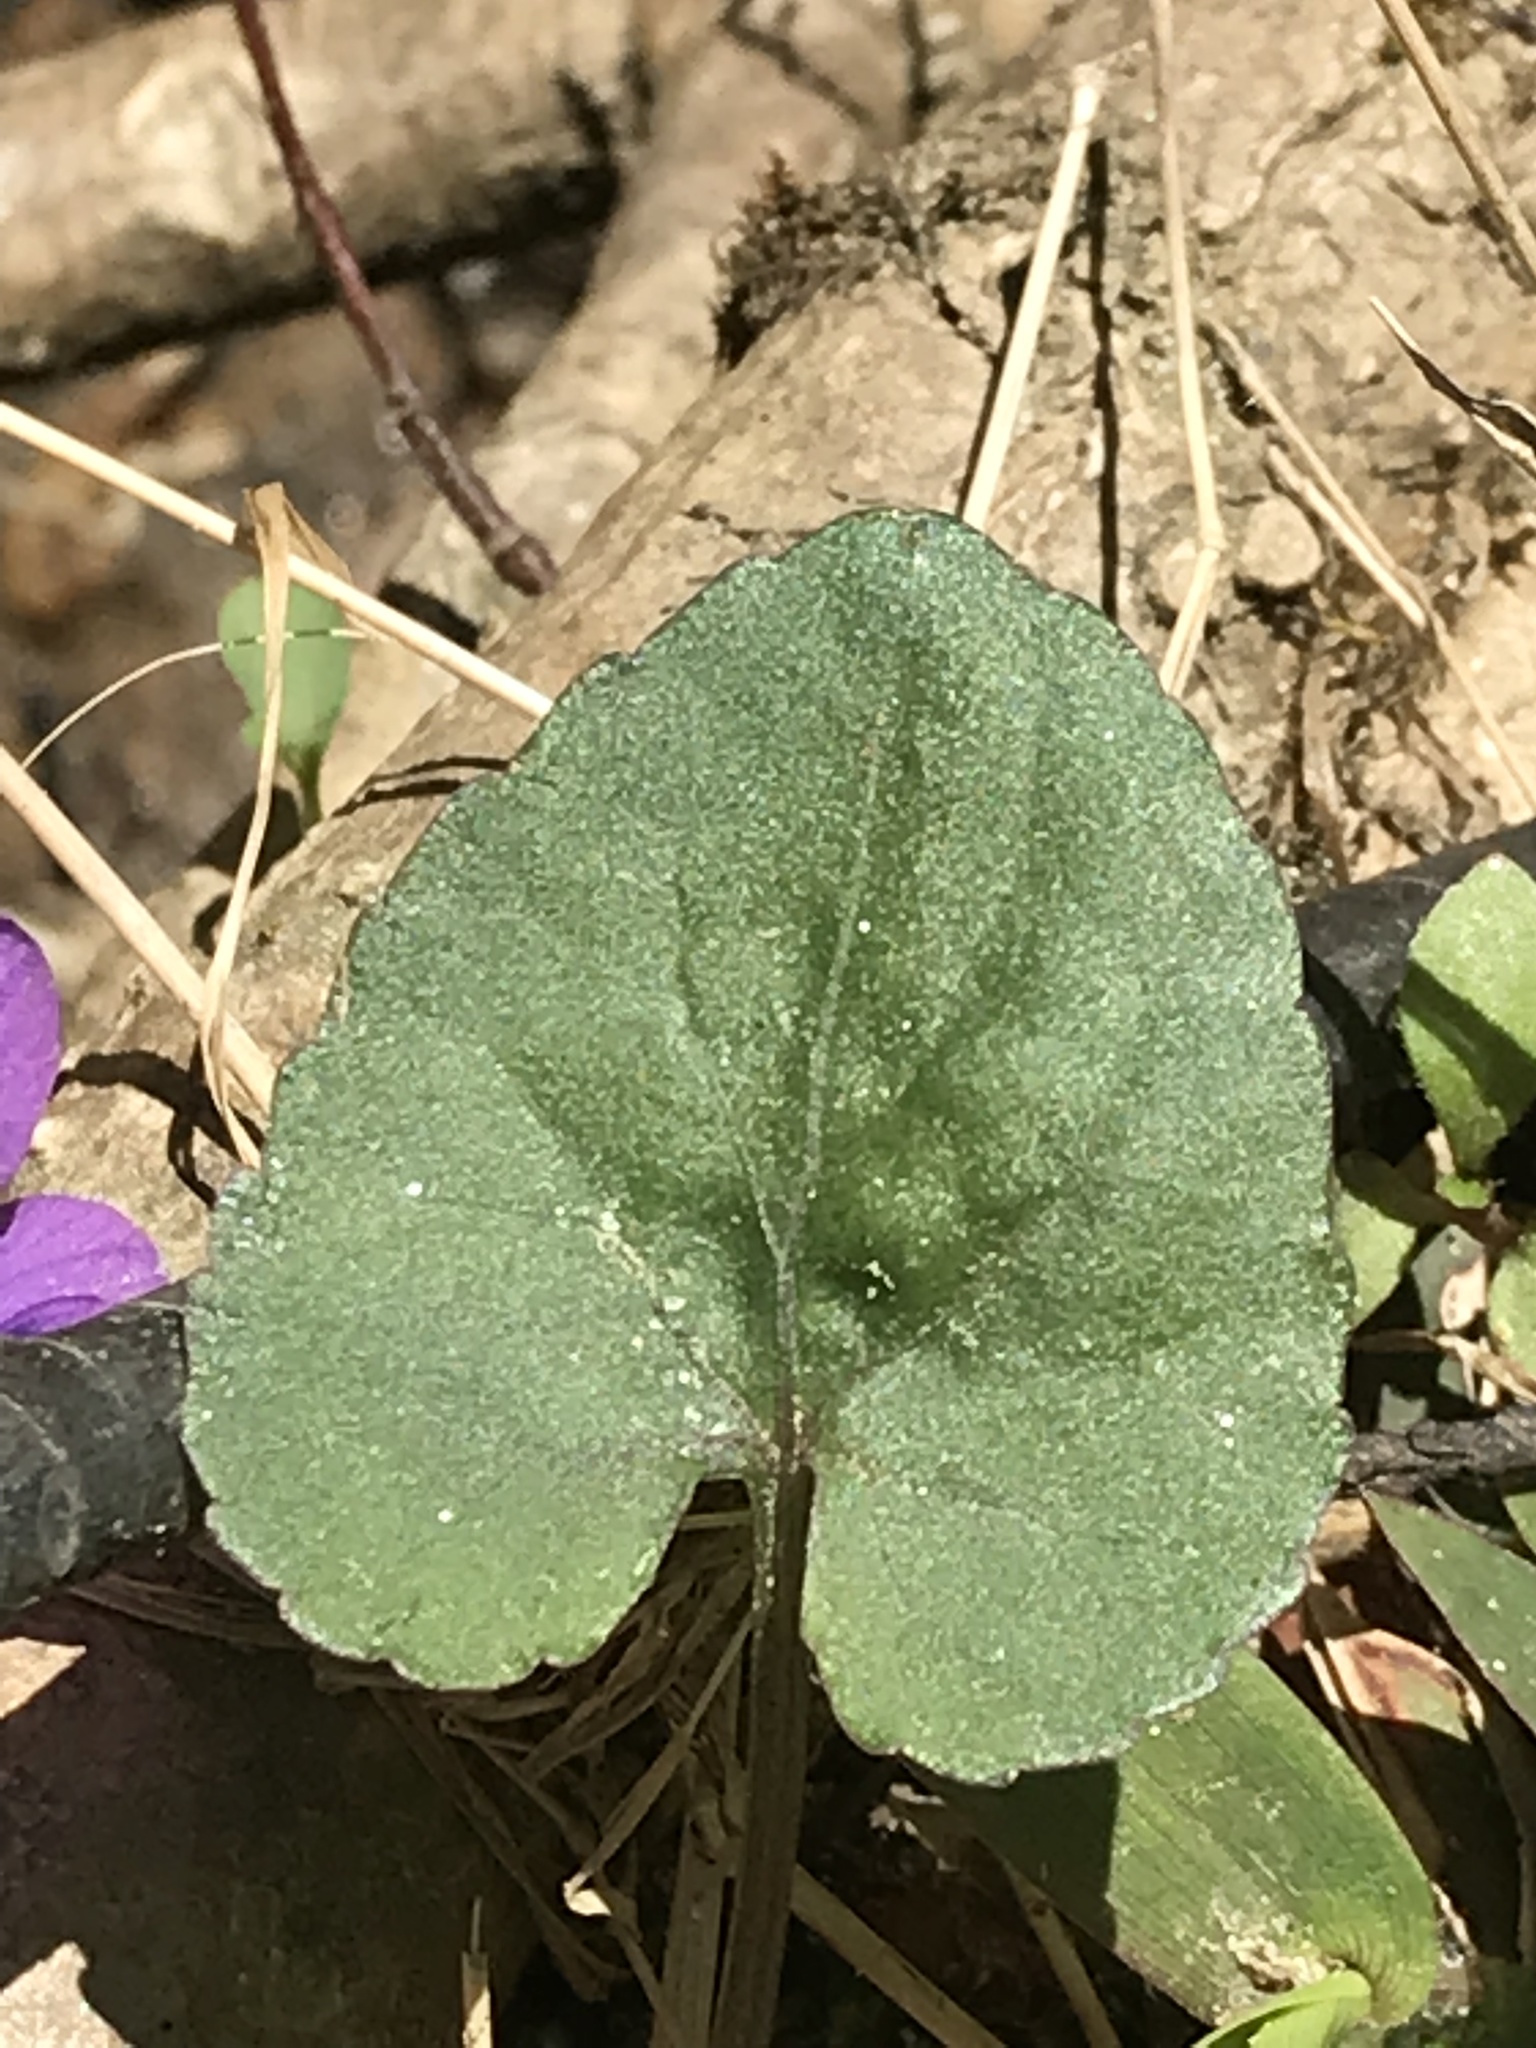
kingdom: Plantae
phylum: Tracheophyta
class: Magnoliopsida
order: Malpighiales
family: Violaceae
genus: Viola
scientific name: Viola hirsutula
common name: Southern wood violet
